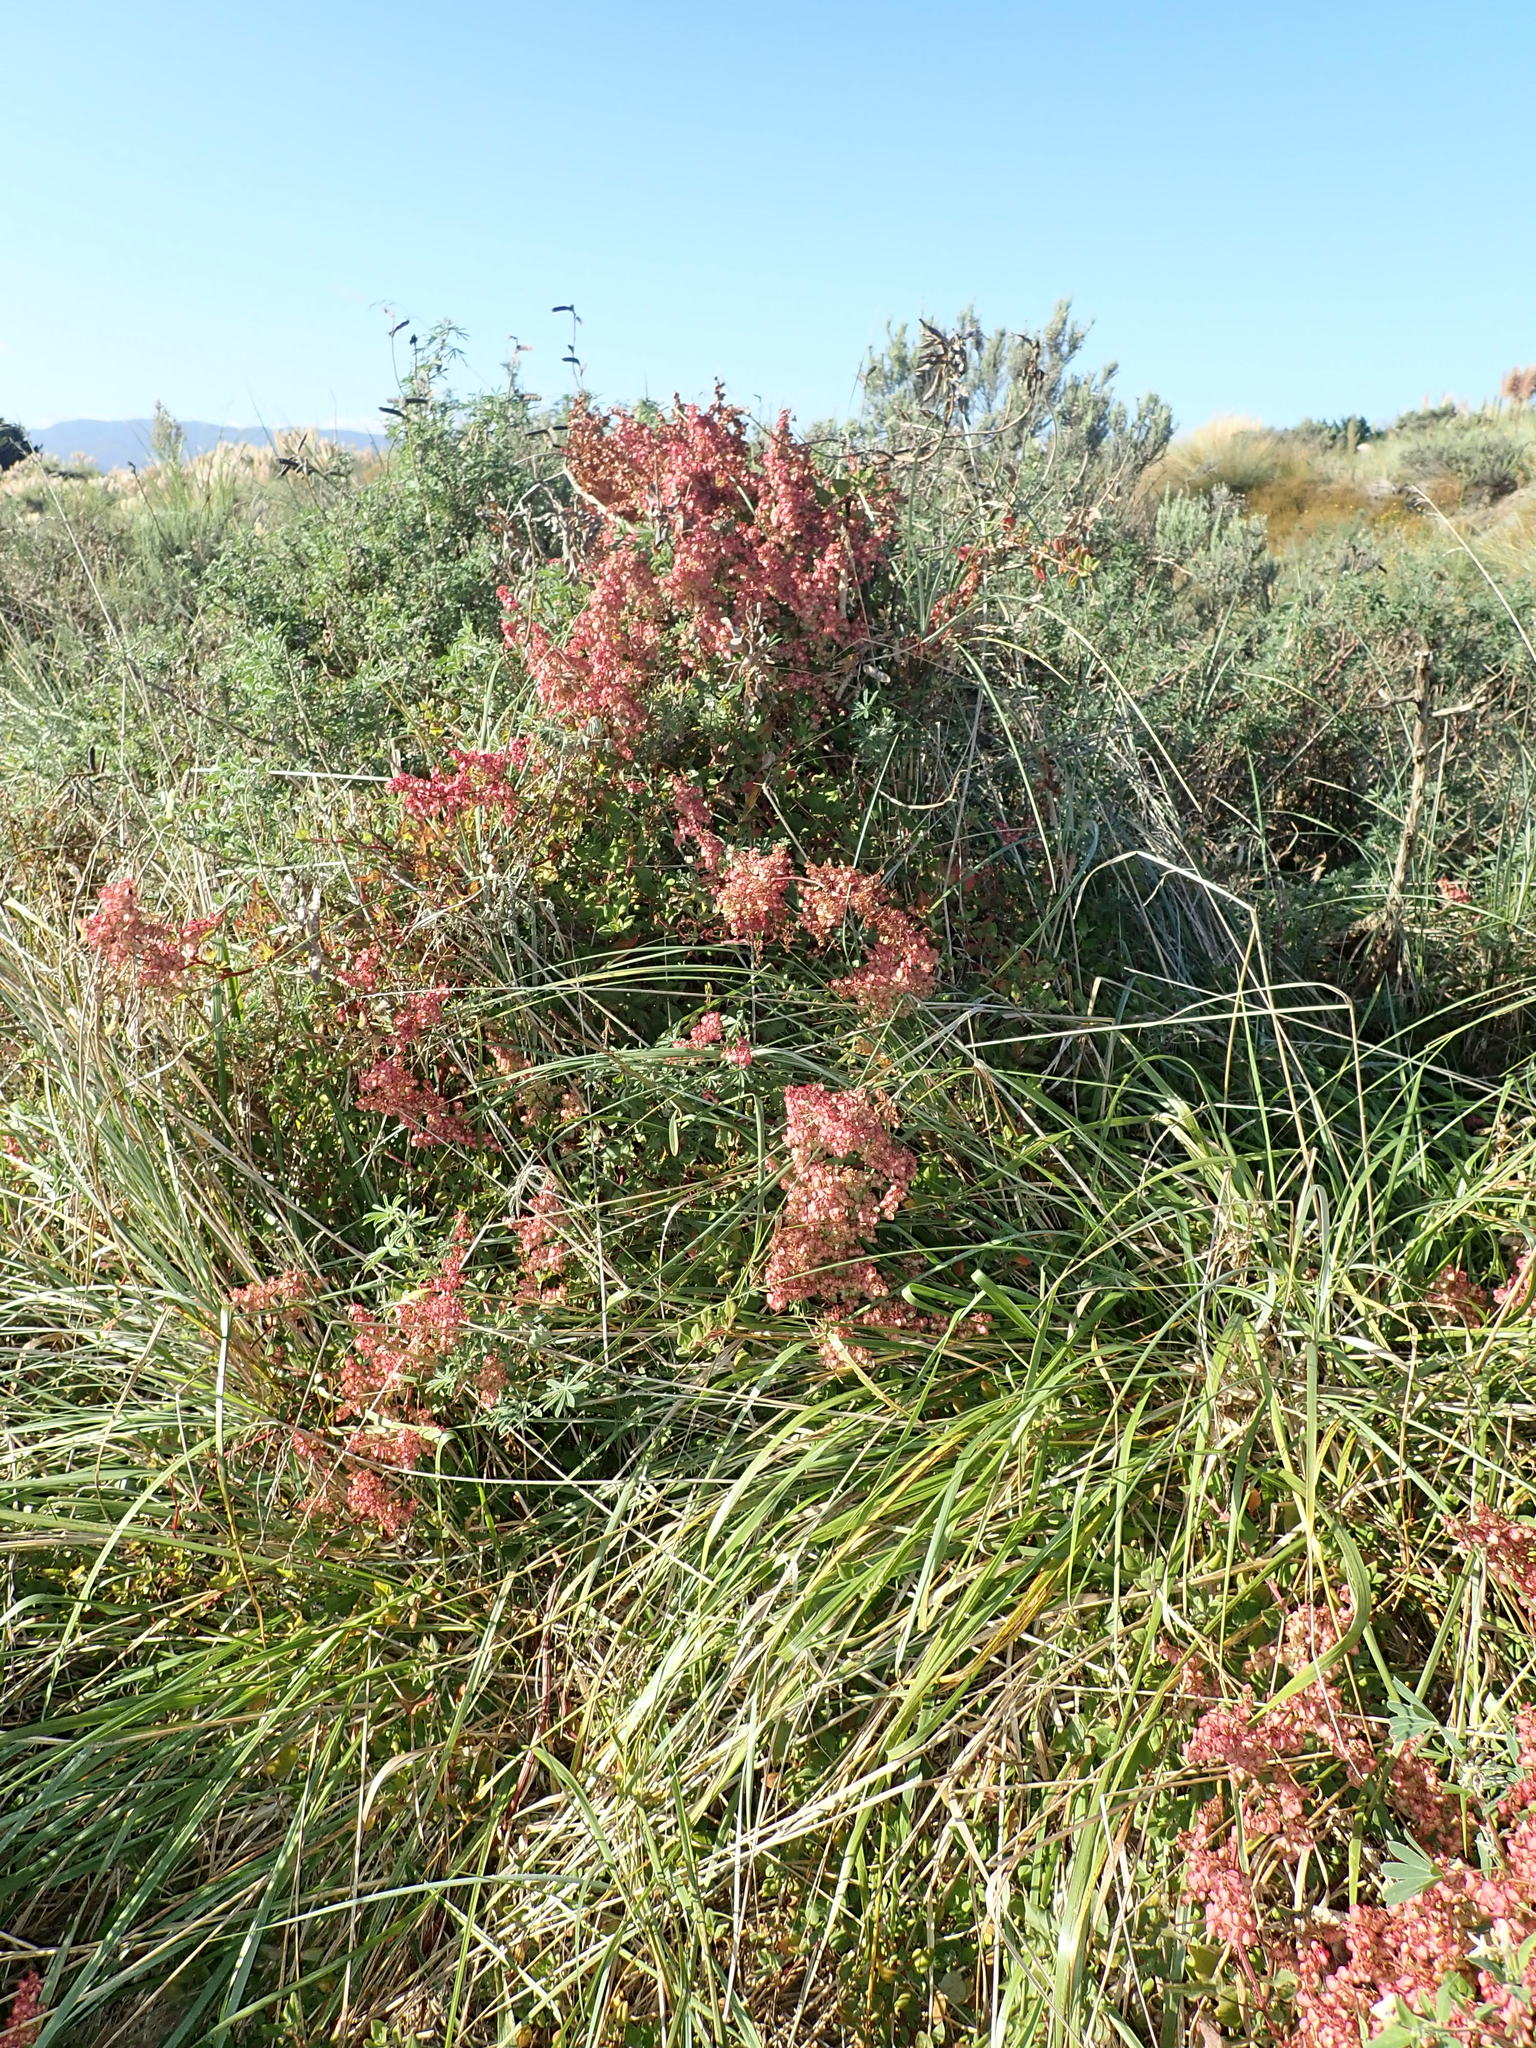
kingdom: Plantae
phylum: Tracheophyta
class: Magnoliopsida
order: Caryophyllales
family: Polygonaceae
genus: Rumex
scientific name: Rumex sagittatus
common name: Climbing dock
